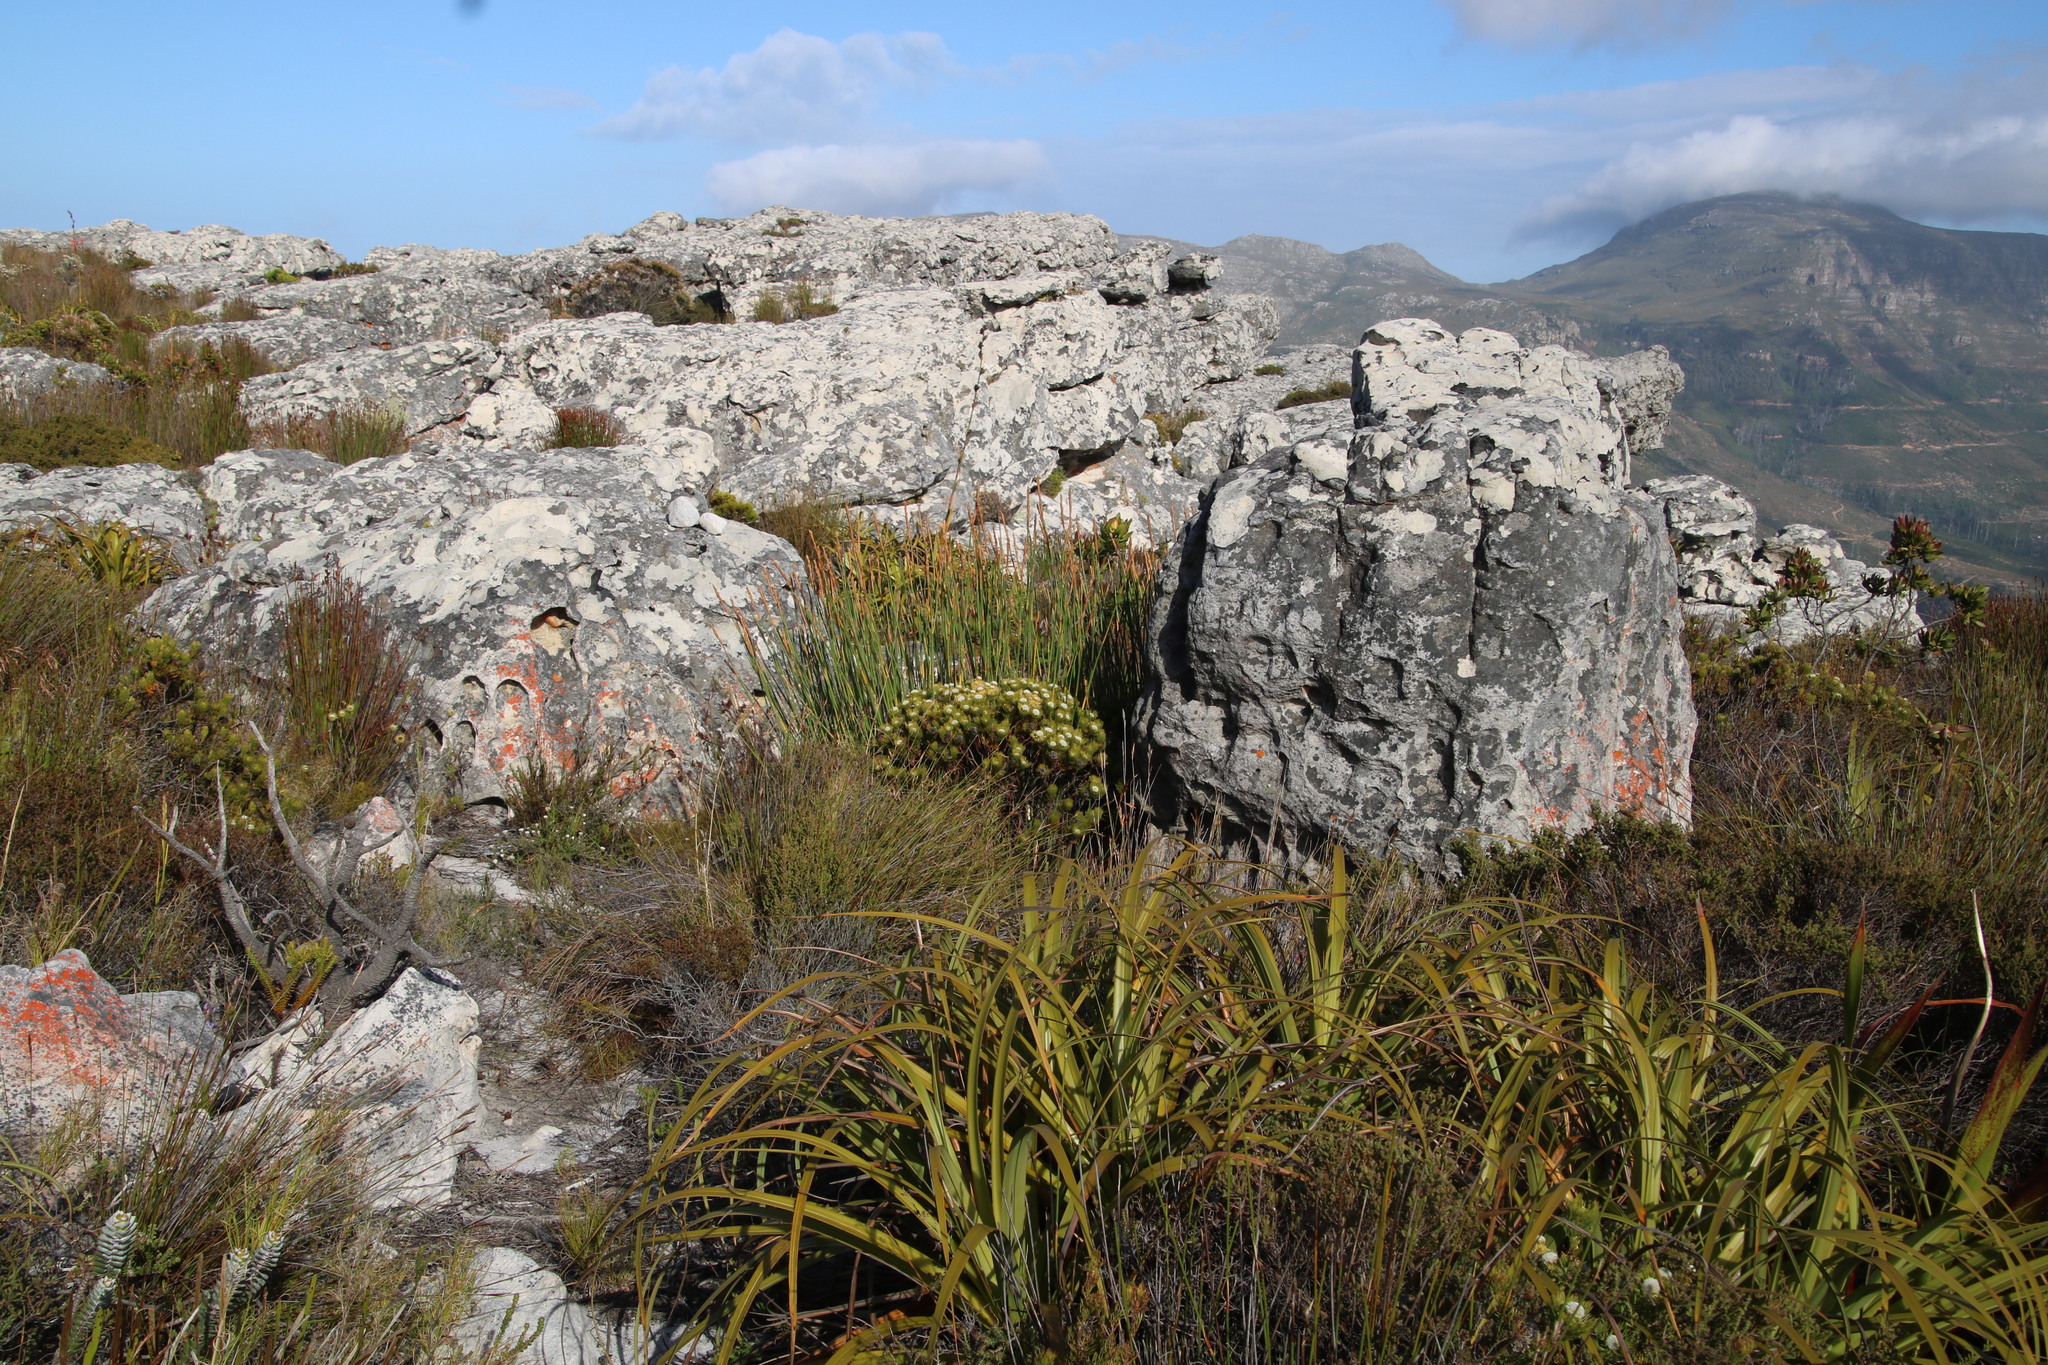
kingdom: Plantae
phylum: Tracheophyta
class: Magnoliopsida
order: Proteales
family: Proteaceae
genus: Serruria
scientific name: Serruria villosa
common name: Golden spiderhead
